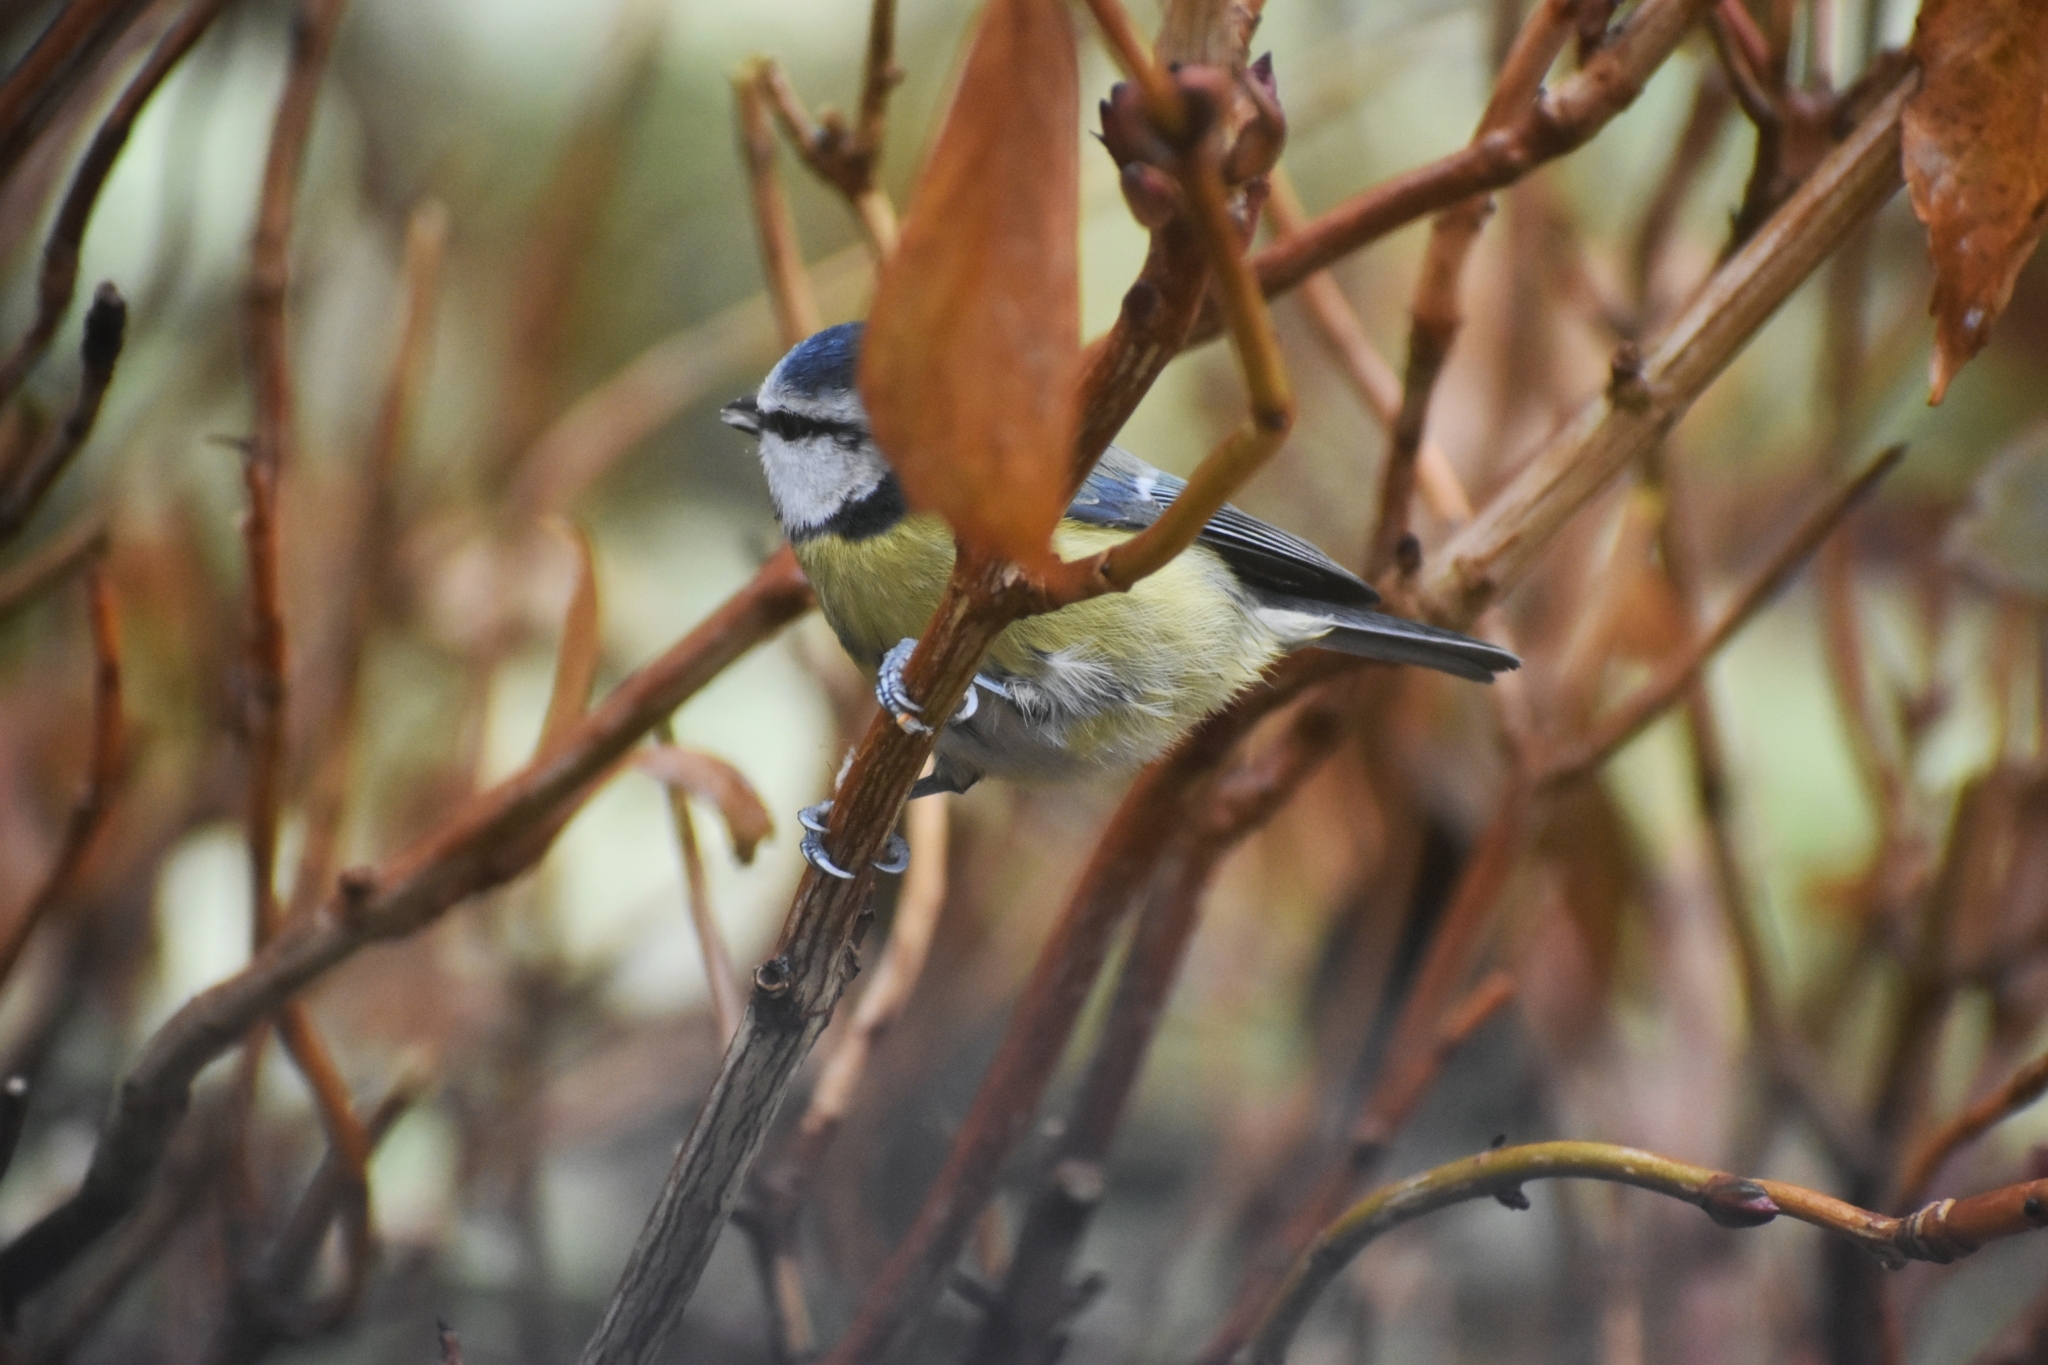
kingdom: Animalia
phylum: Chordata
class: Aves
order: Passeriformes
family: Paridae
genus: Cyanistes
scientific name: Cyanistes caeruleus
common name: Eurasian blue tit
